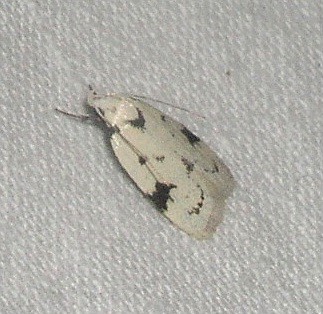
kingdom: Animalia
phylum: Arthropoda
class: Insecta
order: Lepidoptera
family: Oecophoridae
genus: Inga
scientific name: Inga sparsiciliella
